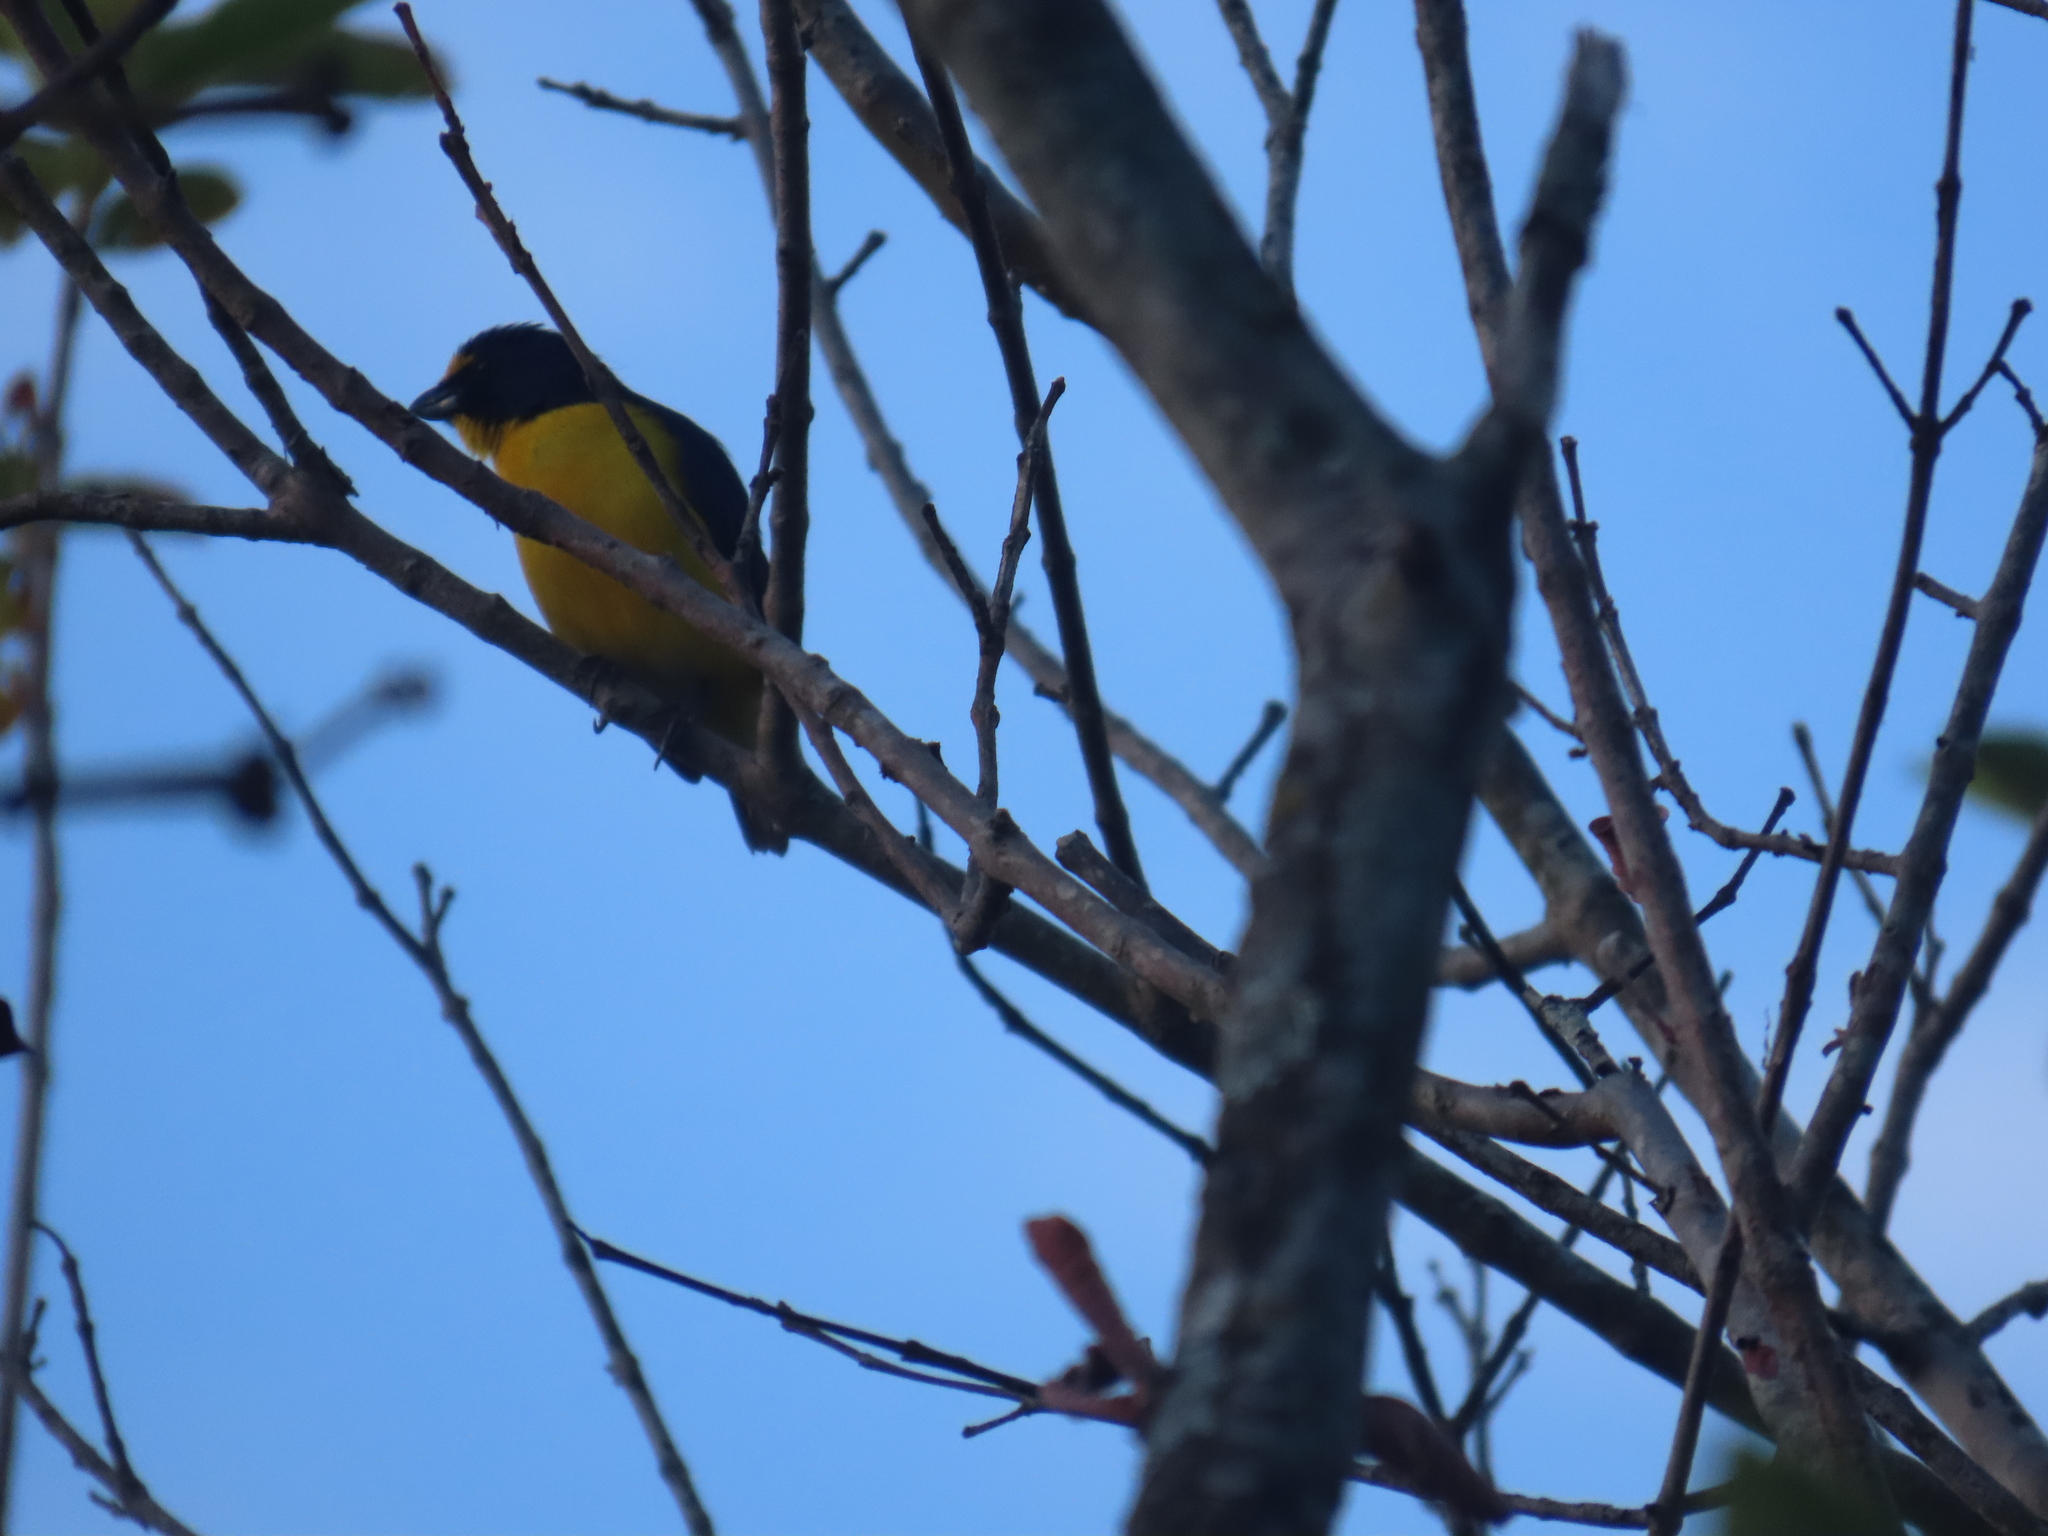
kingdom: Animalia
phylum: Chordata
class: Aves
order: Passeriformes
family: Fringillidae
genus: Euphonia
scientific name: Euphonia hirundinacea
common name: Yellow-throated euphonia
